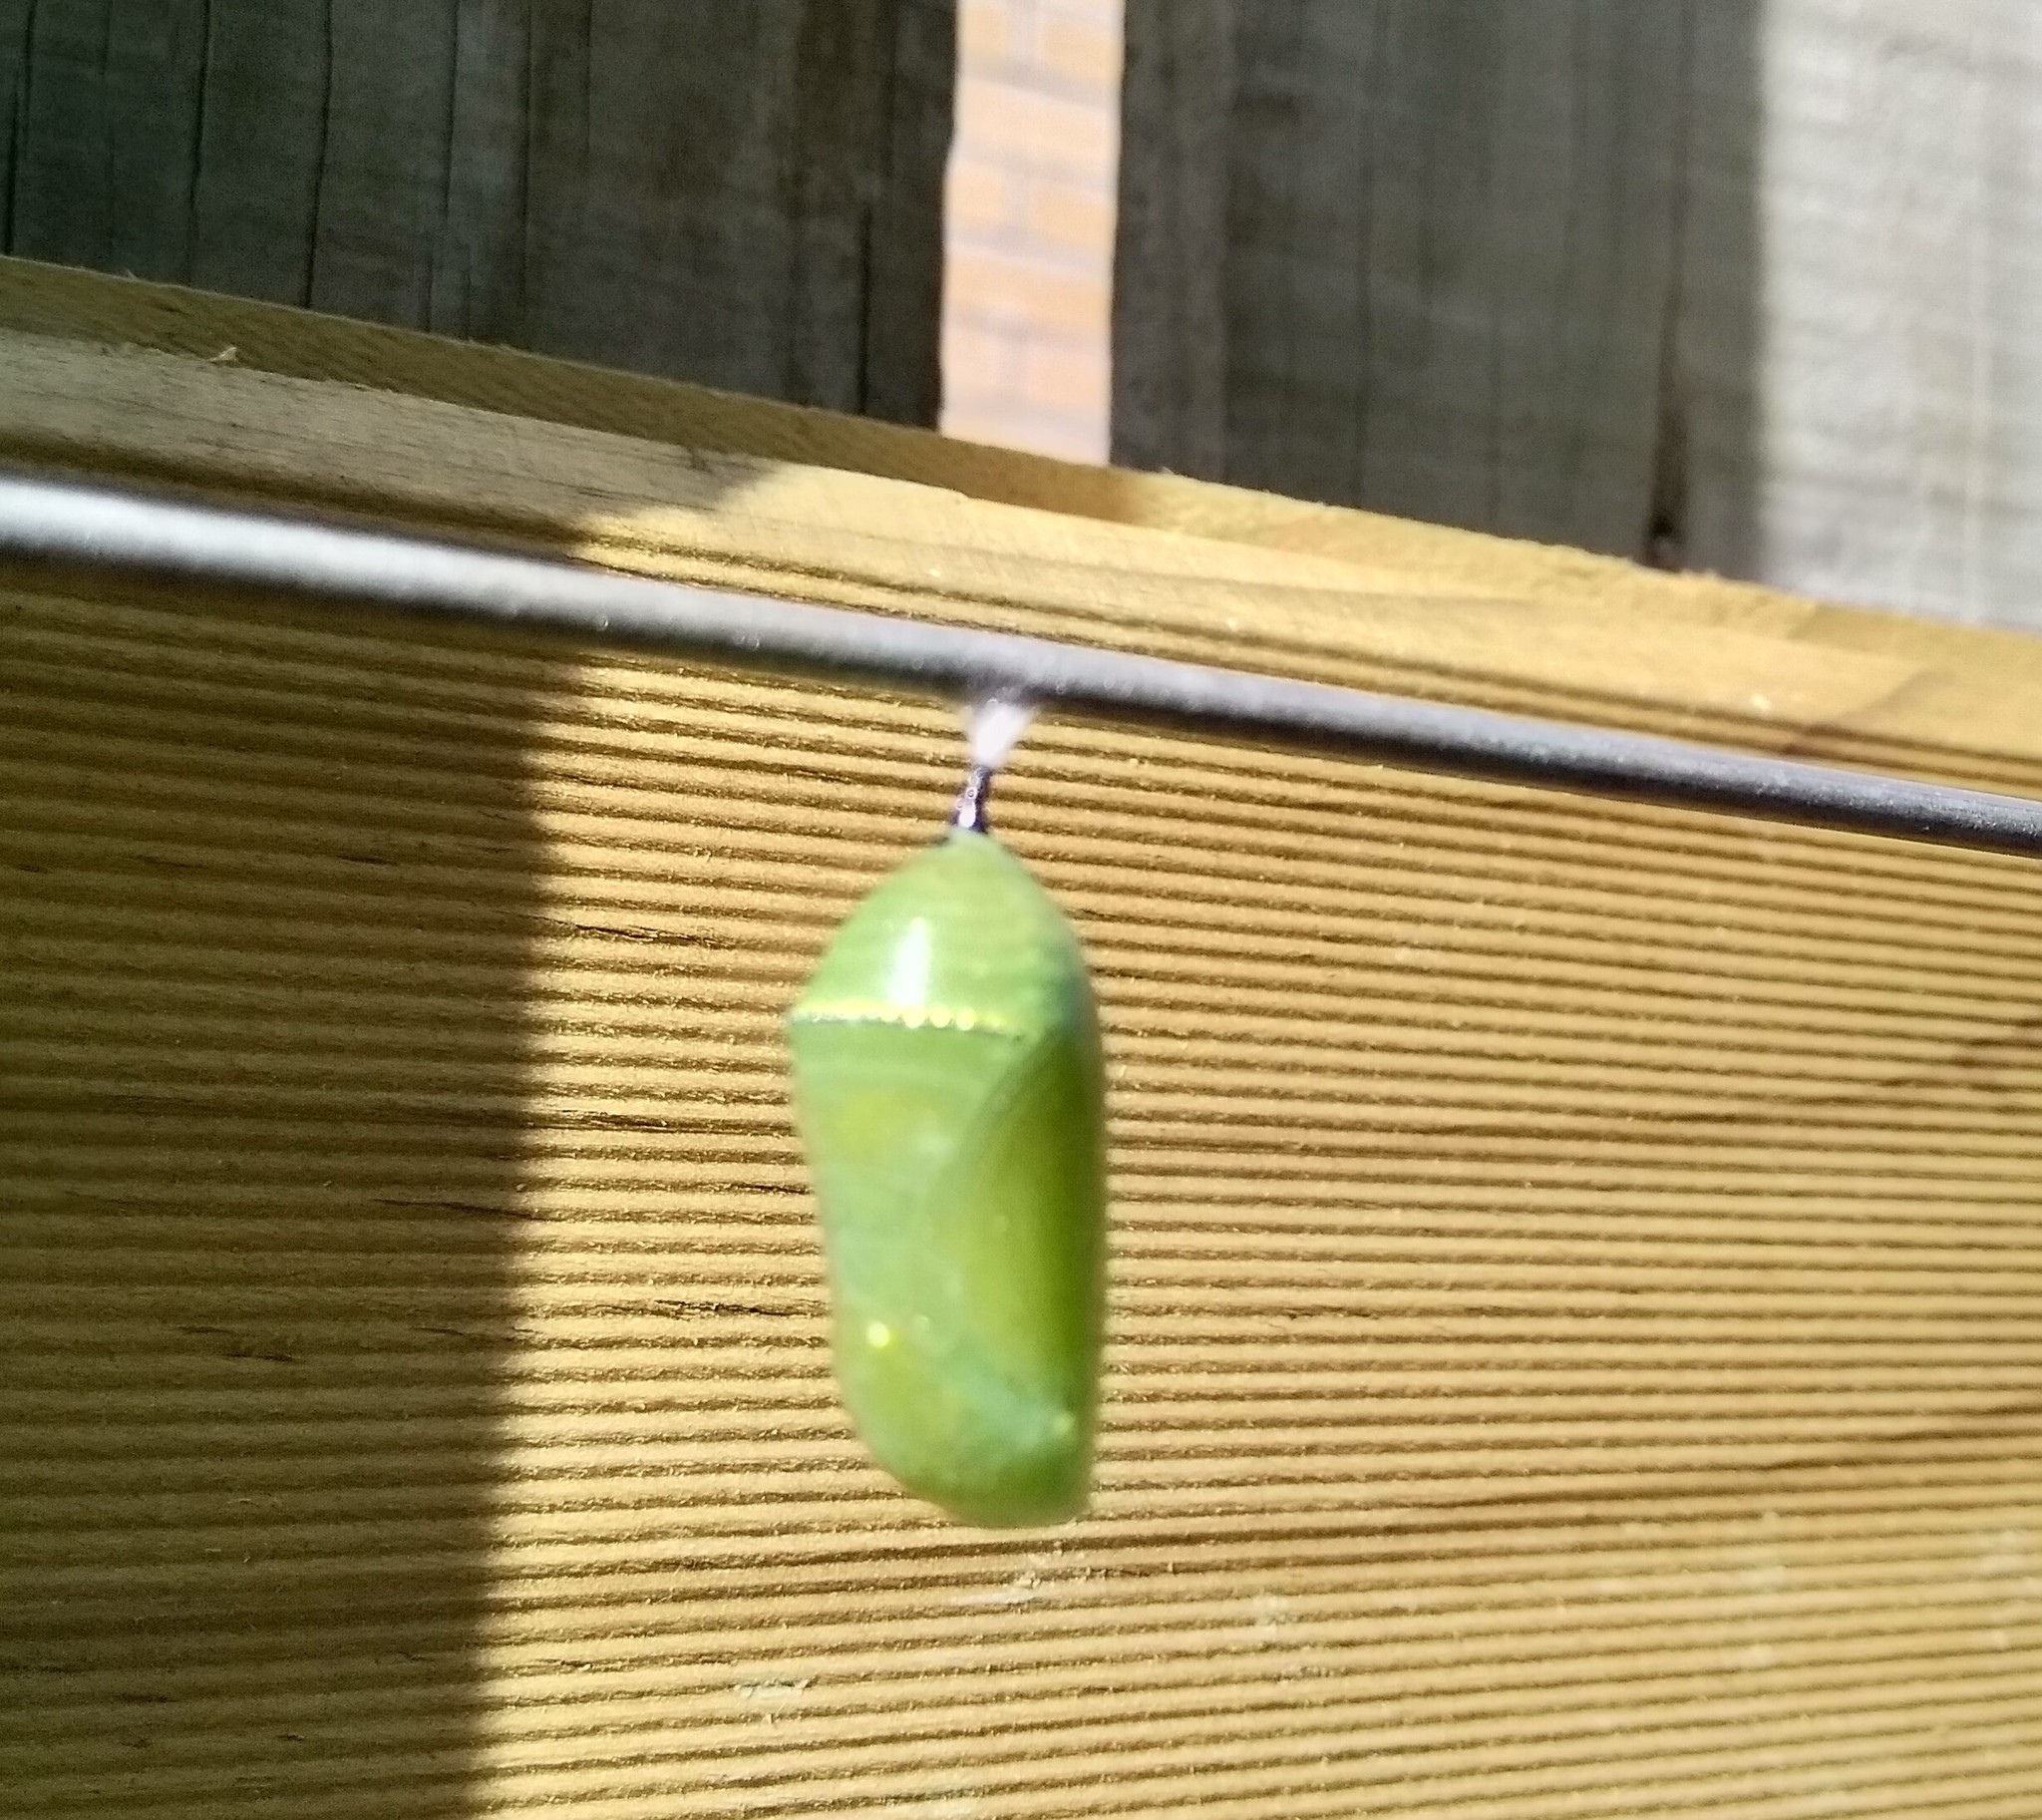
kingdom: Animalia
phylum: Arthropoda
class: Insecta
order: Lepidoptera
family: Nymphalidae
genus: Danaus
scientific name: Danaus plexippus
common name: Monarch
